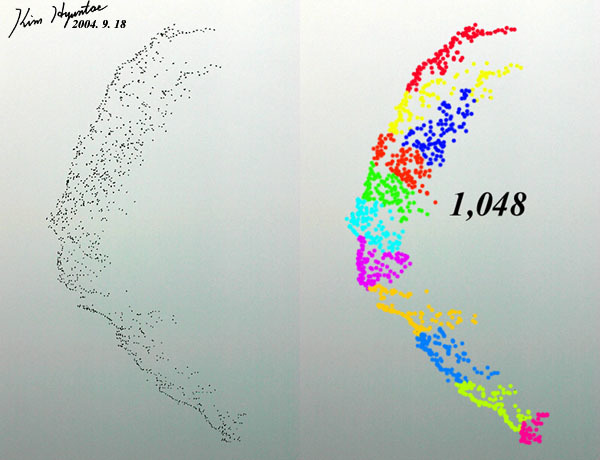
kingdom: Animalia
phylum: Chordata
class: Aves
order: Anseriformes
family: Anatidae
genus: Sibirionetta
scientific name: Sibirionetta formosa
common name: Baikal teal
